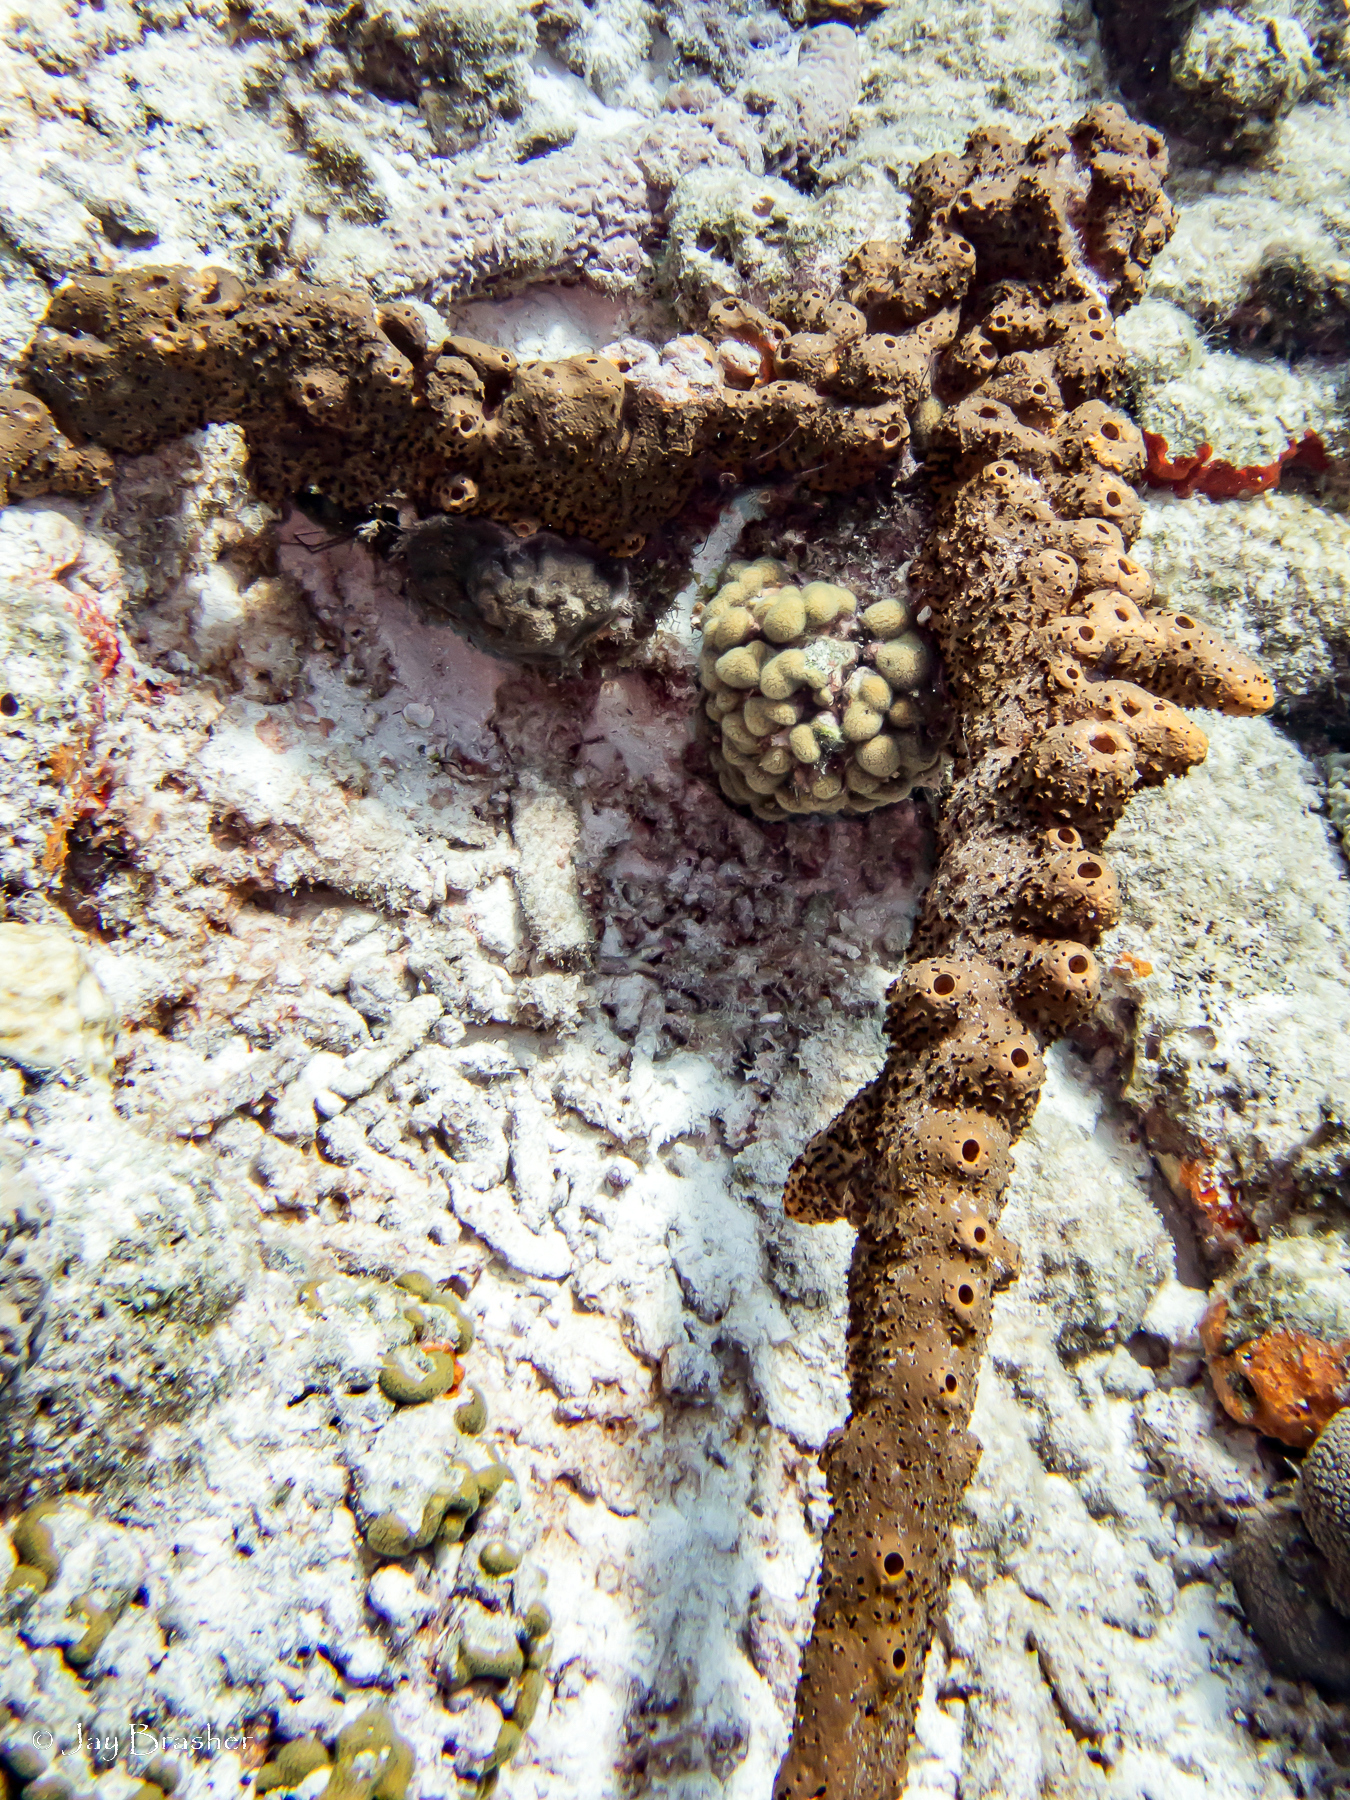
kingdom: Animalia
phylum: Cnidaria
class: Anthozoa
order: Scleractinia
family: Pocilloporidae
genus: Madracis
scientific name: Madracis decactis
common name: Ten-ray star coral
